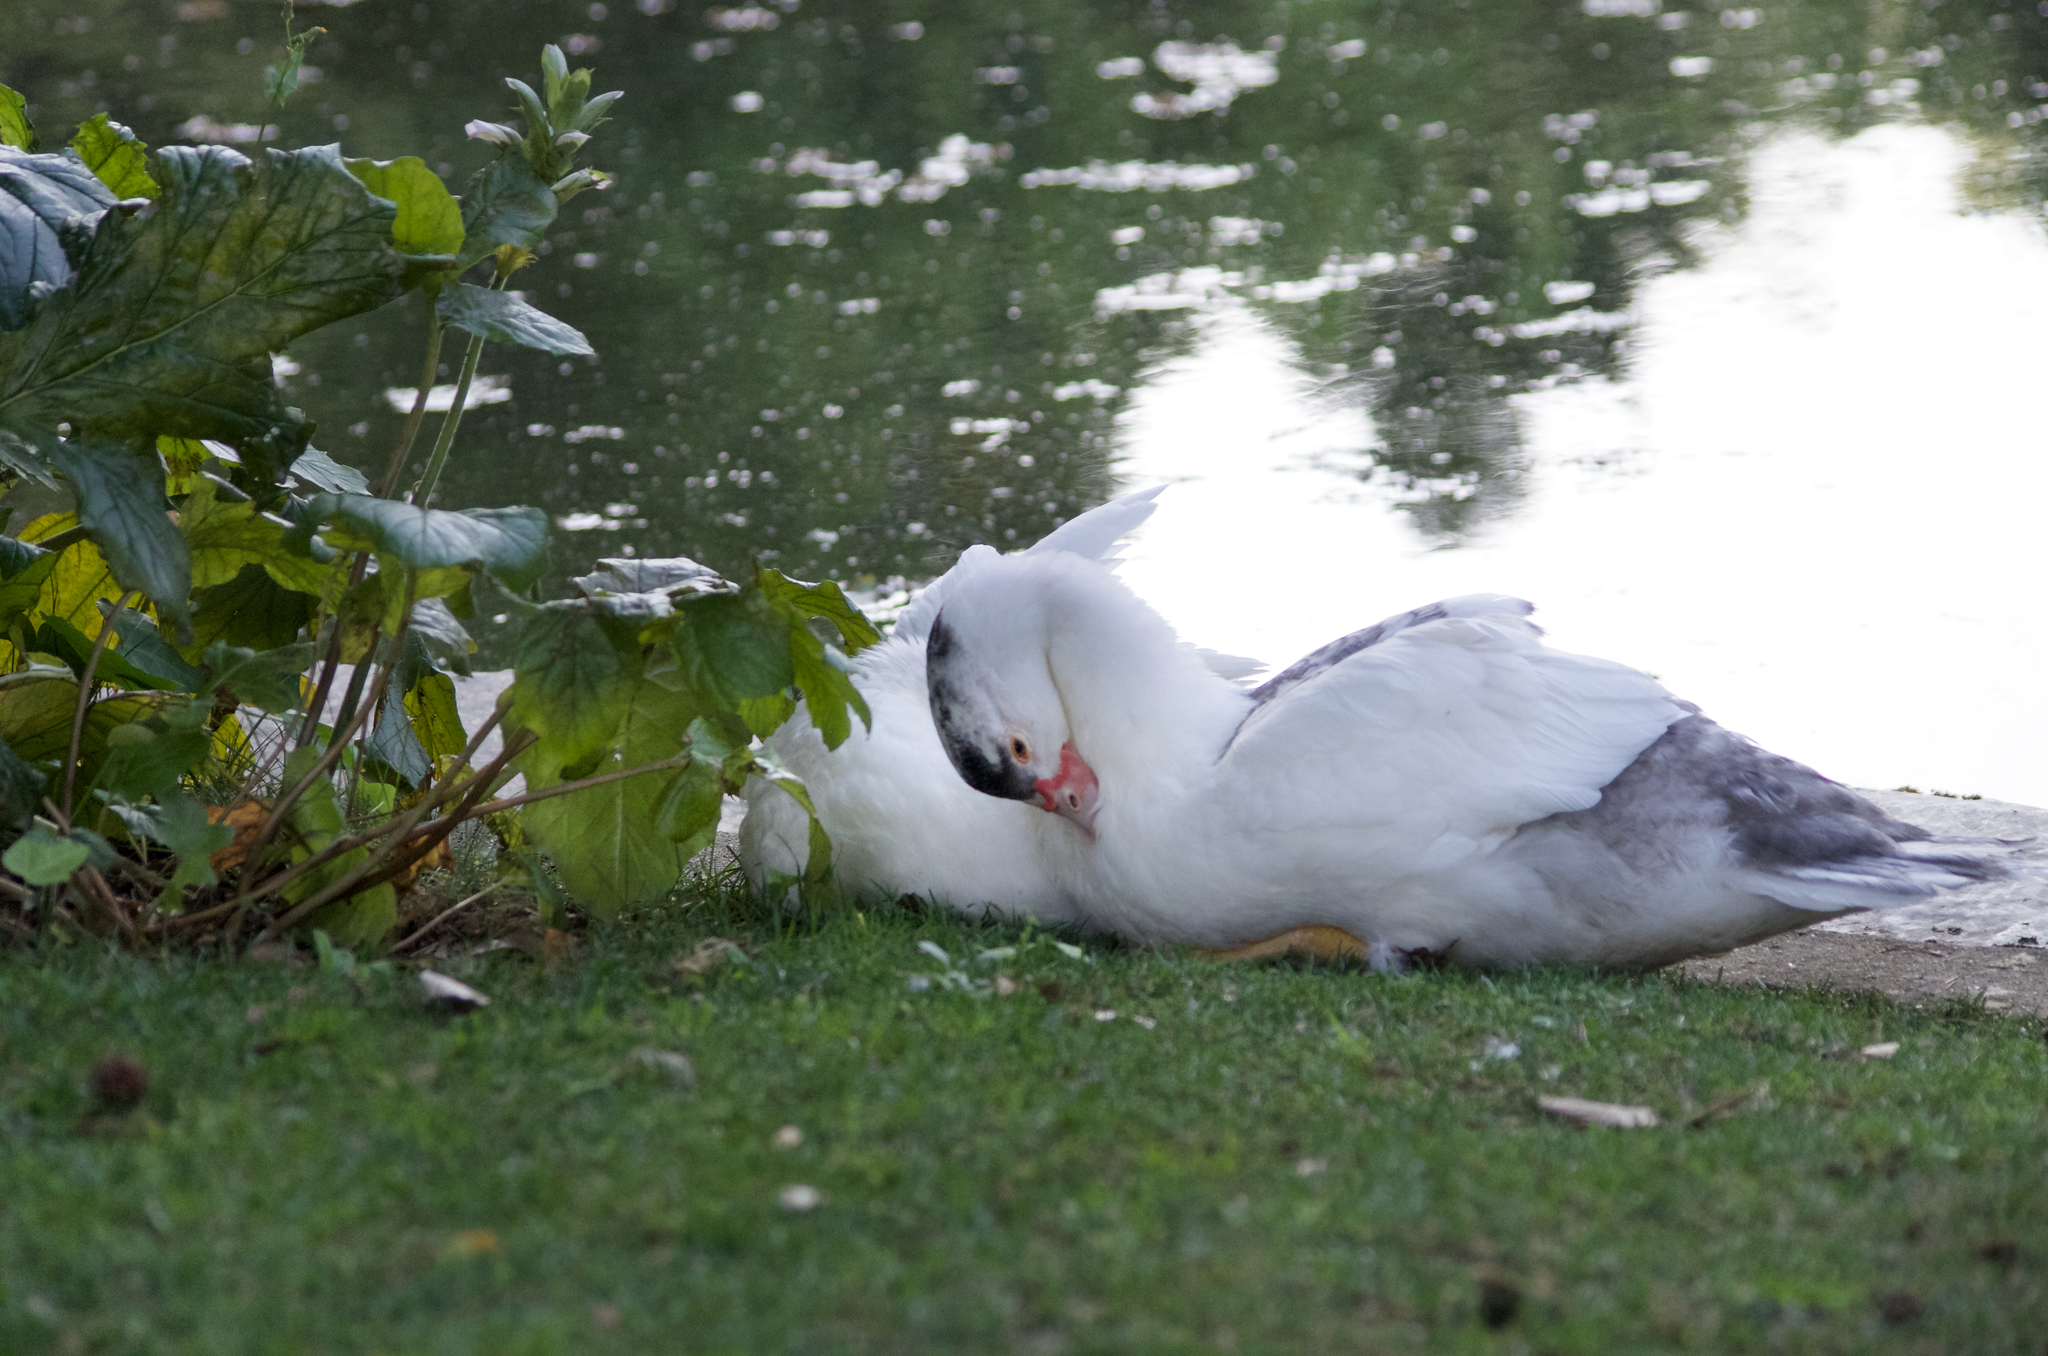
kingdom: Animalia
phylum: Chordata
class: Aves
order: Anseriformes
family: Anatidae
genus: Cairina
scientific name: Cairina moschata
